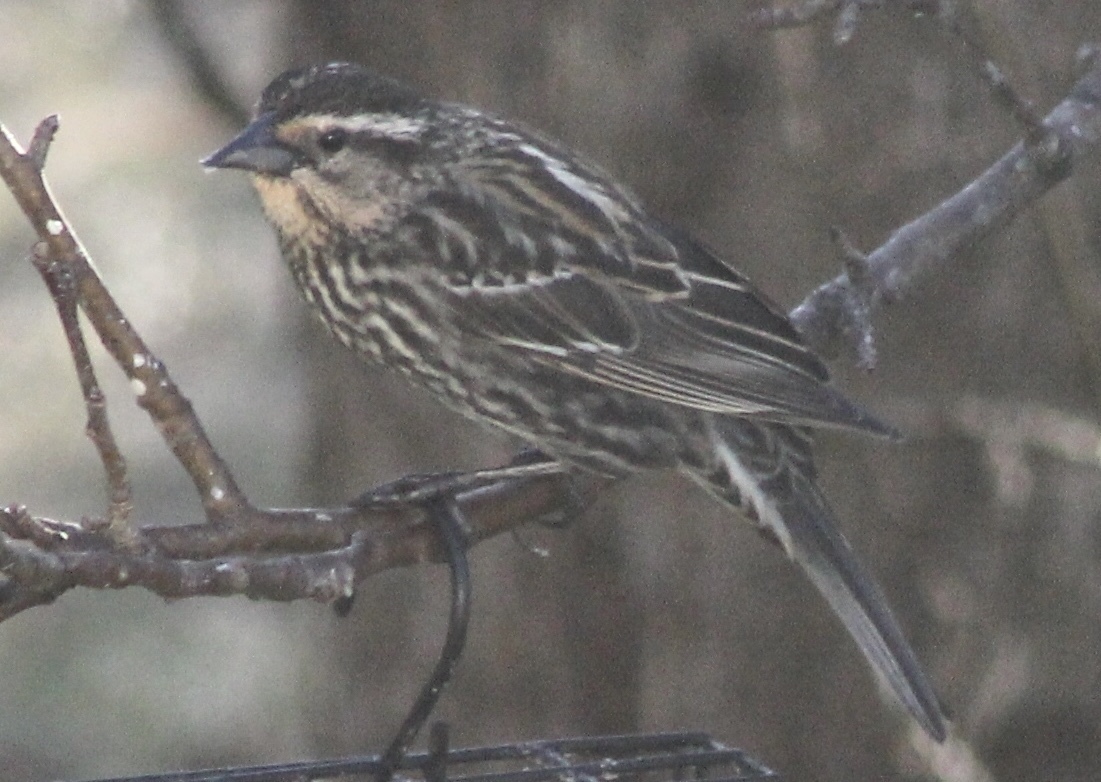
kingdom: Animalia
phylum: Chordata
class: Aves
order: Passeriformes
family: Icteridae
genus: Agelaius
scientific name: Agelaius phoeniceus
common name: Red-winged blackbird
